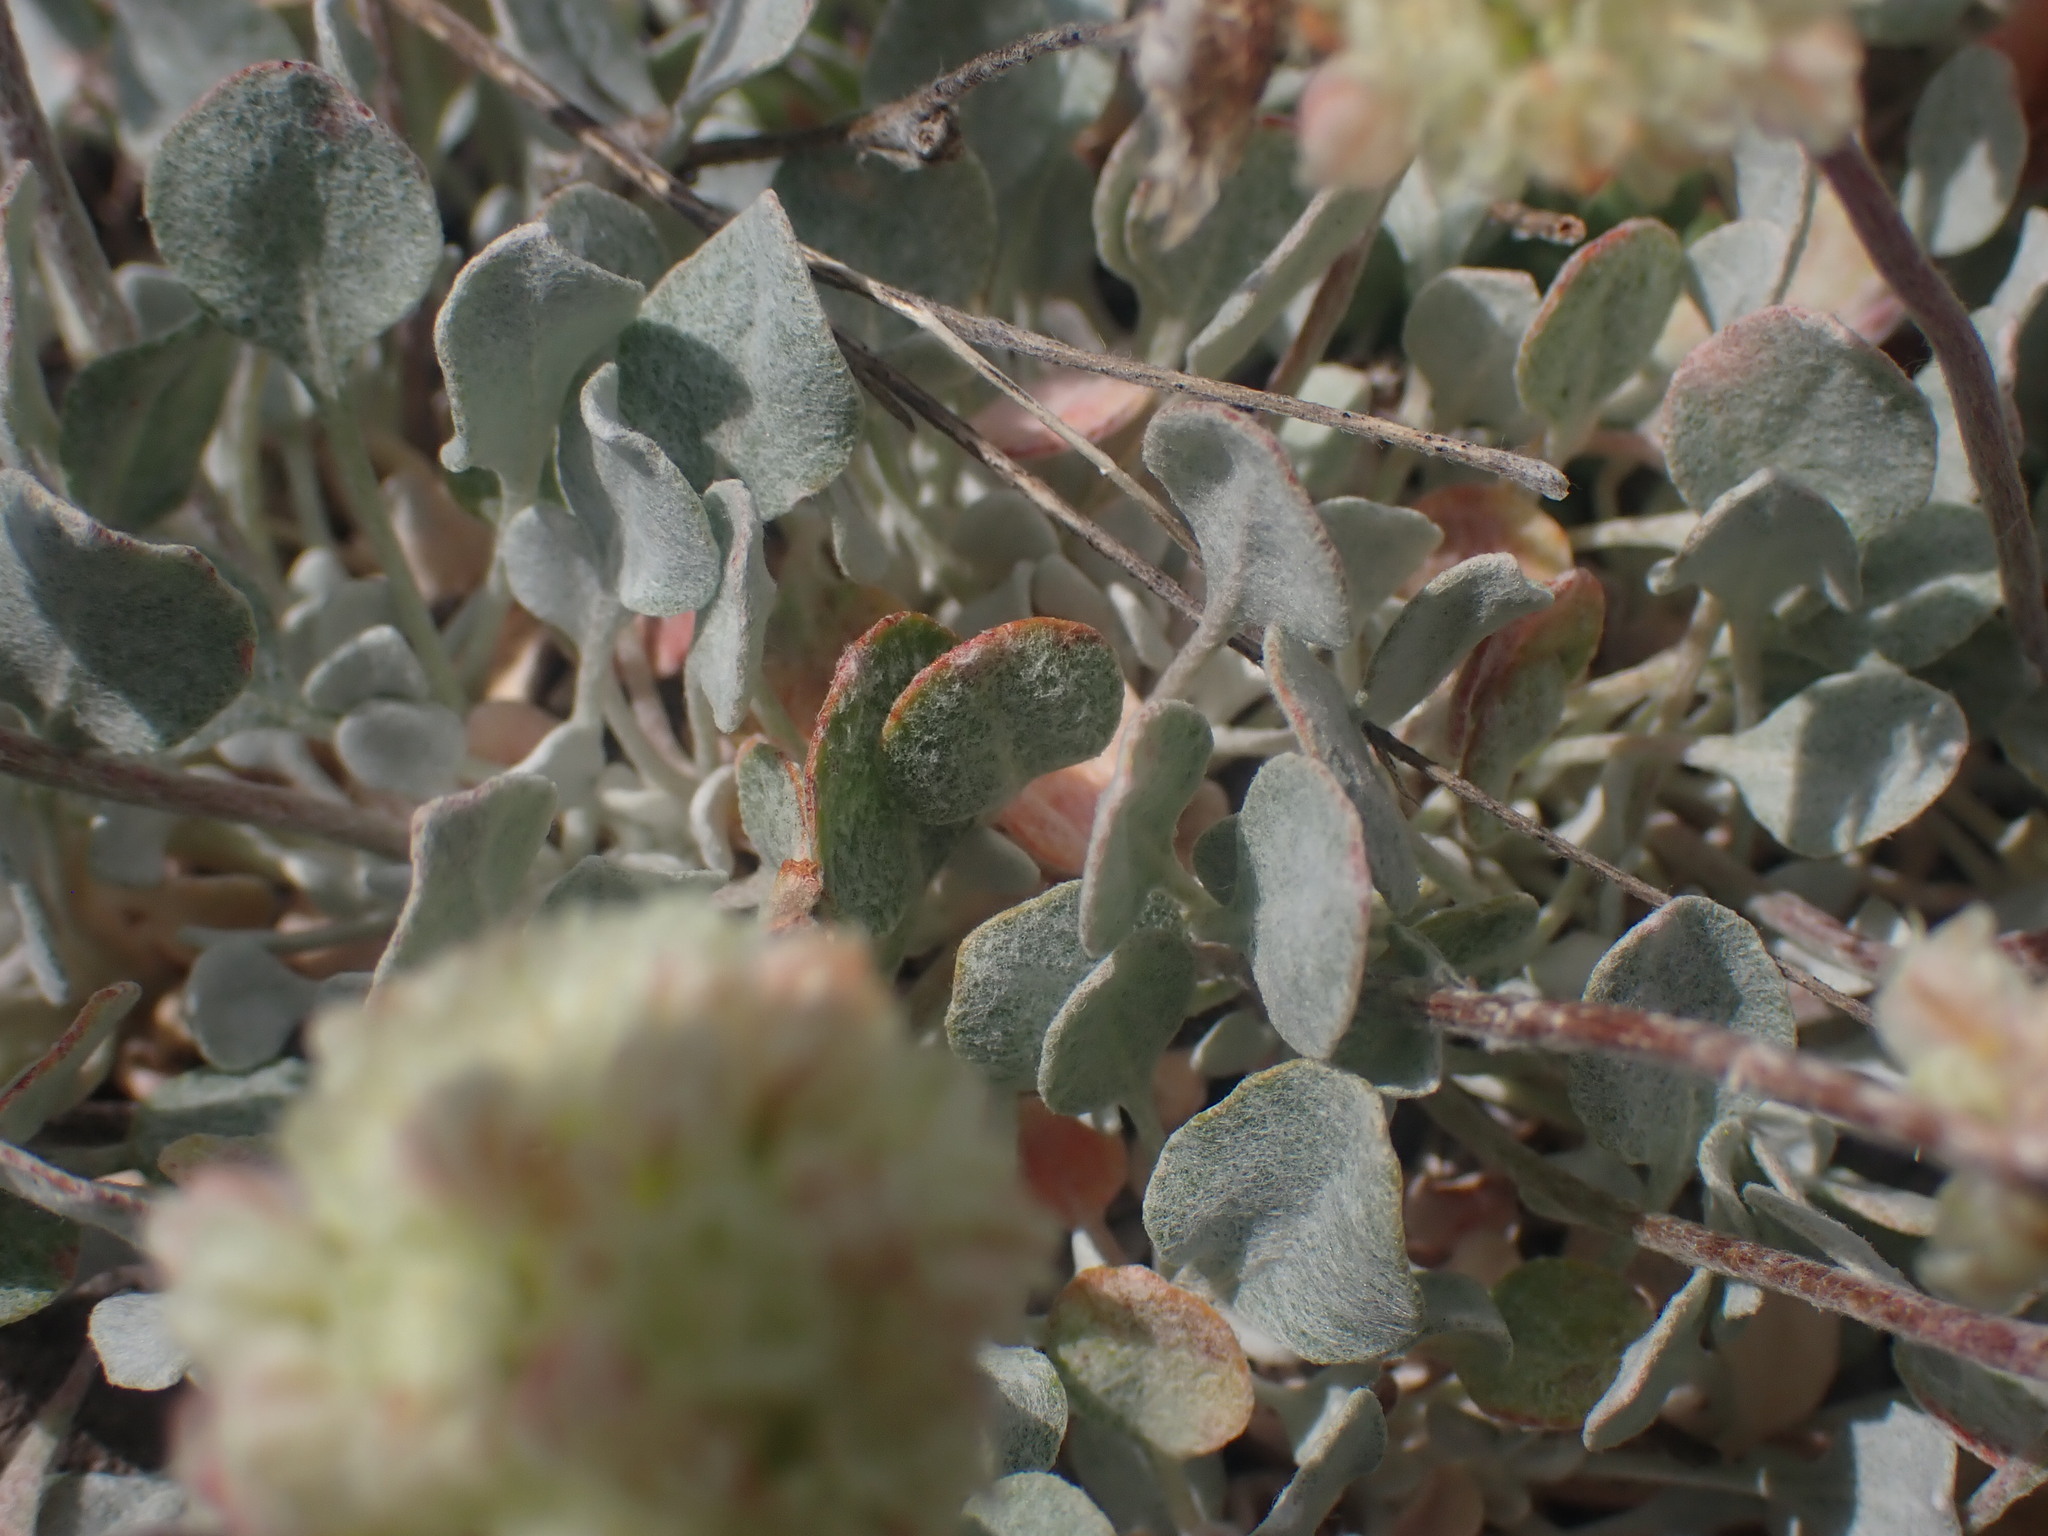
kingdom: Plantae
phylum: Tracheophyta
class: Magnoliopsida
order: Caryophyllales
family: Polygonaceae
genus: Eriogonum
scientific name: Eriogonum ovalifolium
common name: Cushion buckwheat
